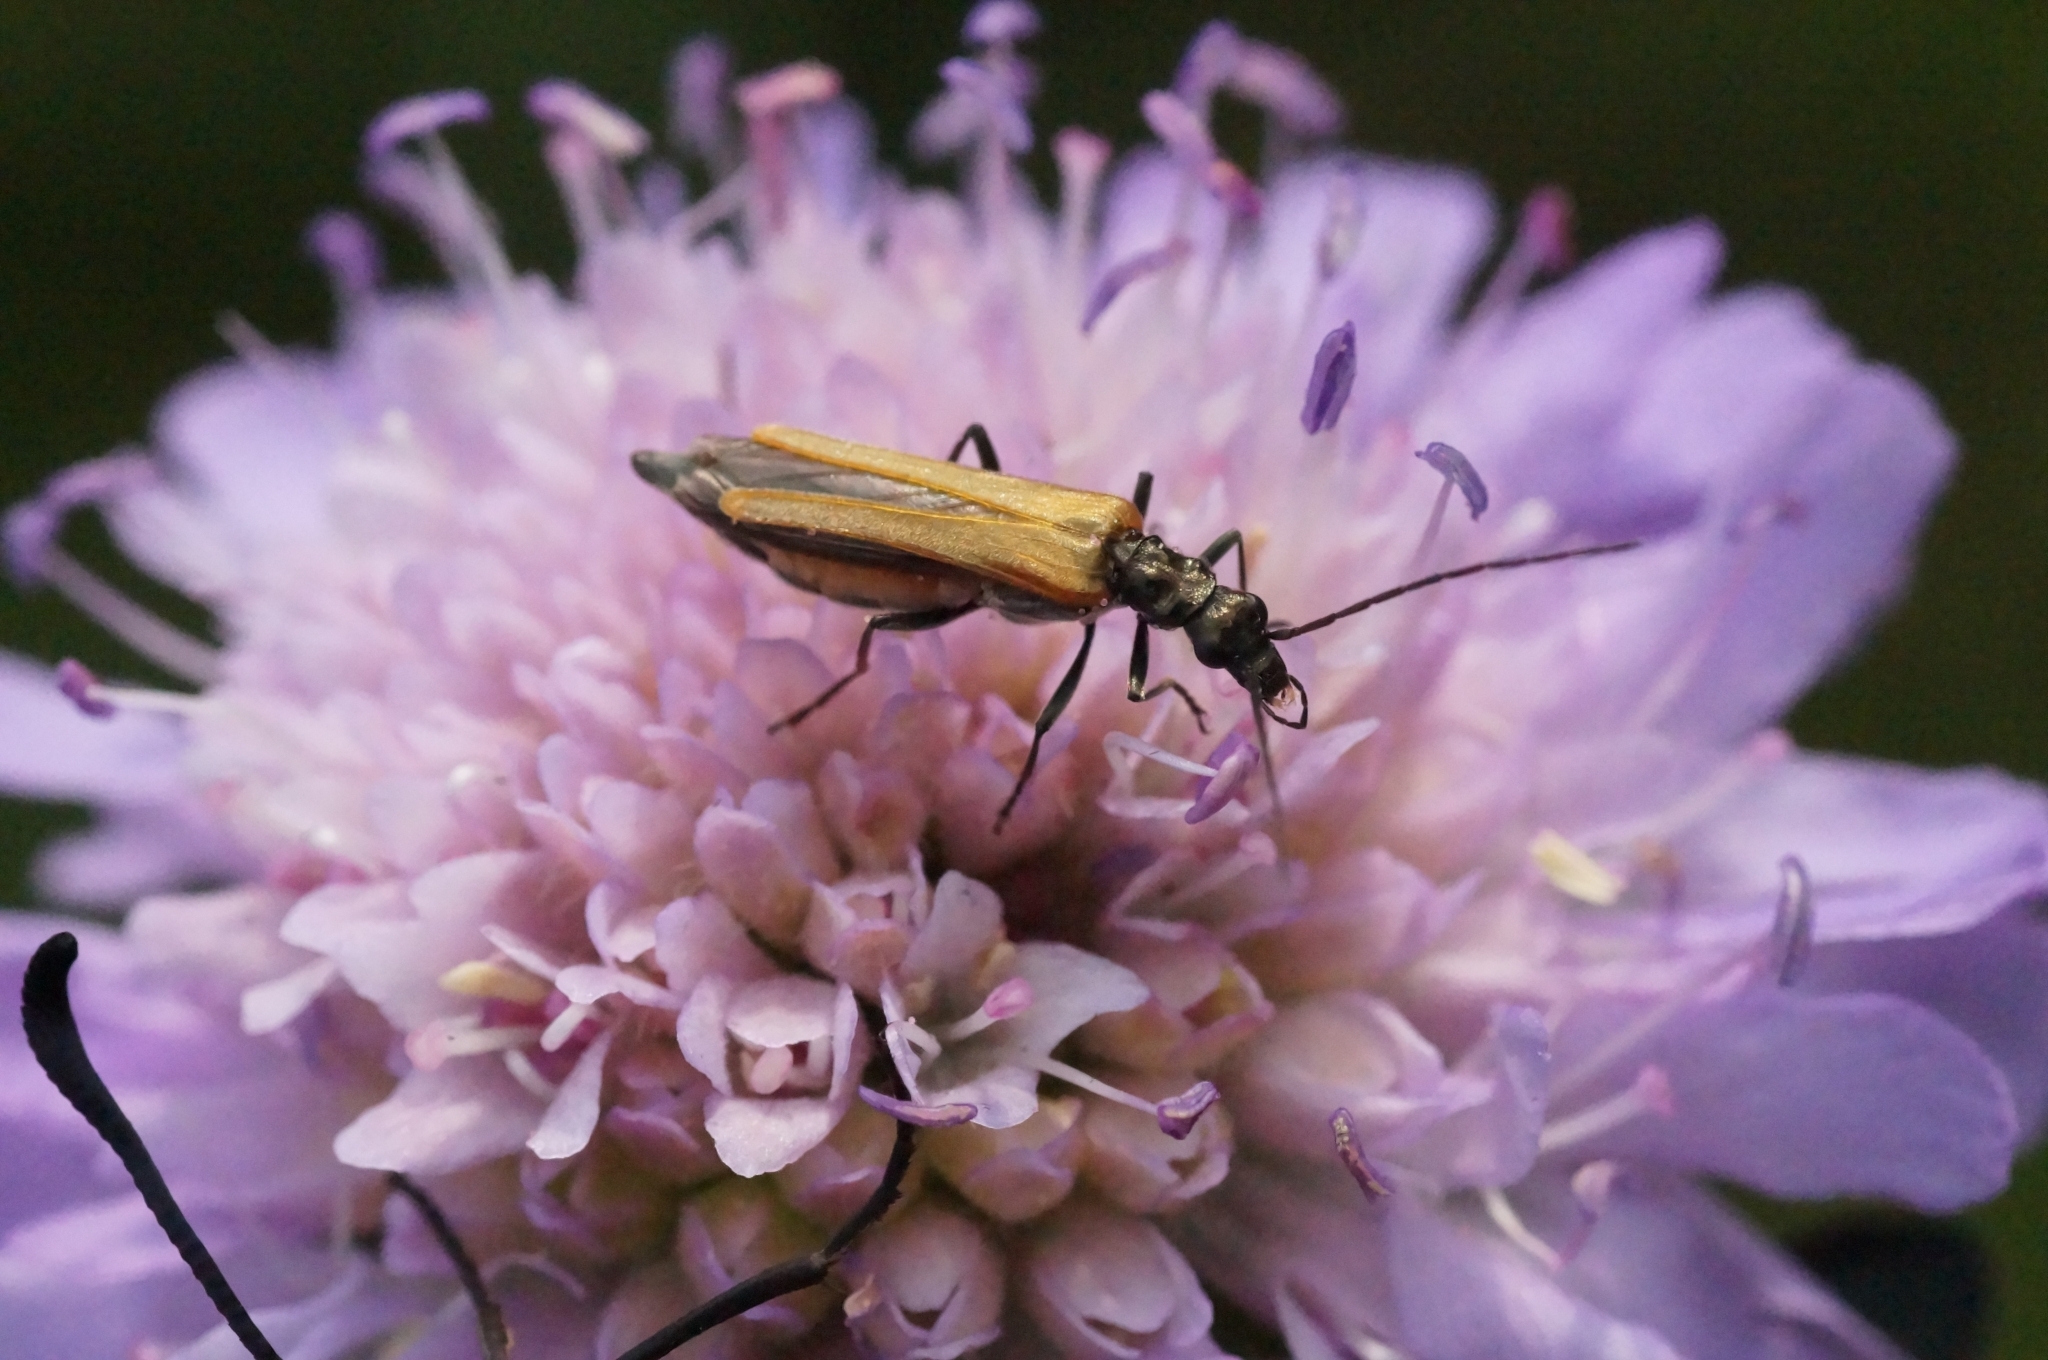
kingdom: Animalia
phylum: Arthropoda
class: Insecta
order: Coleoptera
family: Oedemeridae
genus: Oedemera
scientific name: Oedemera femorata
